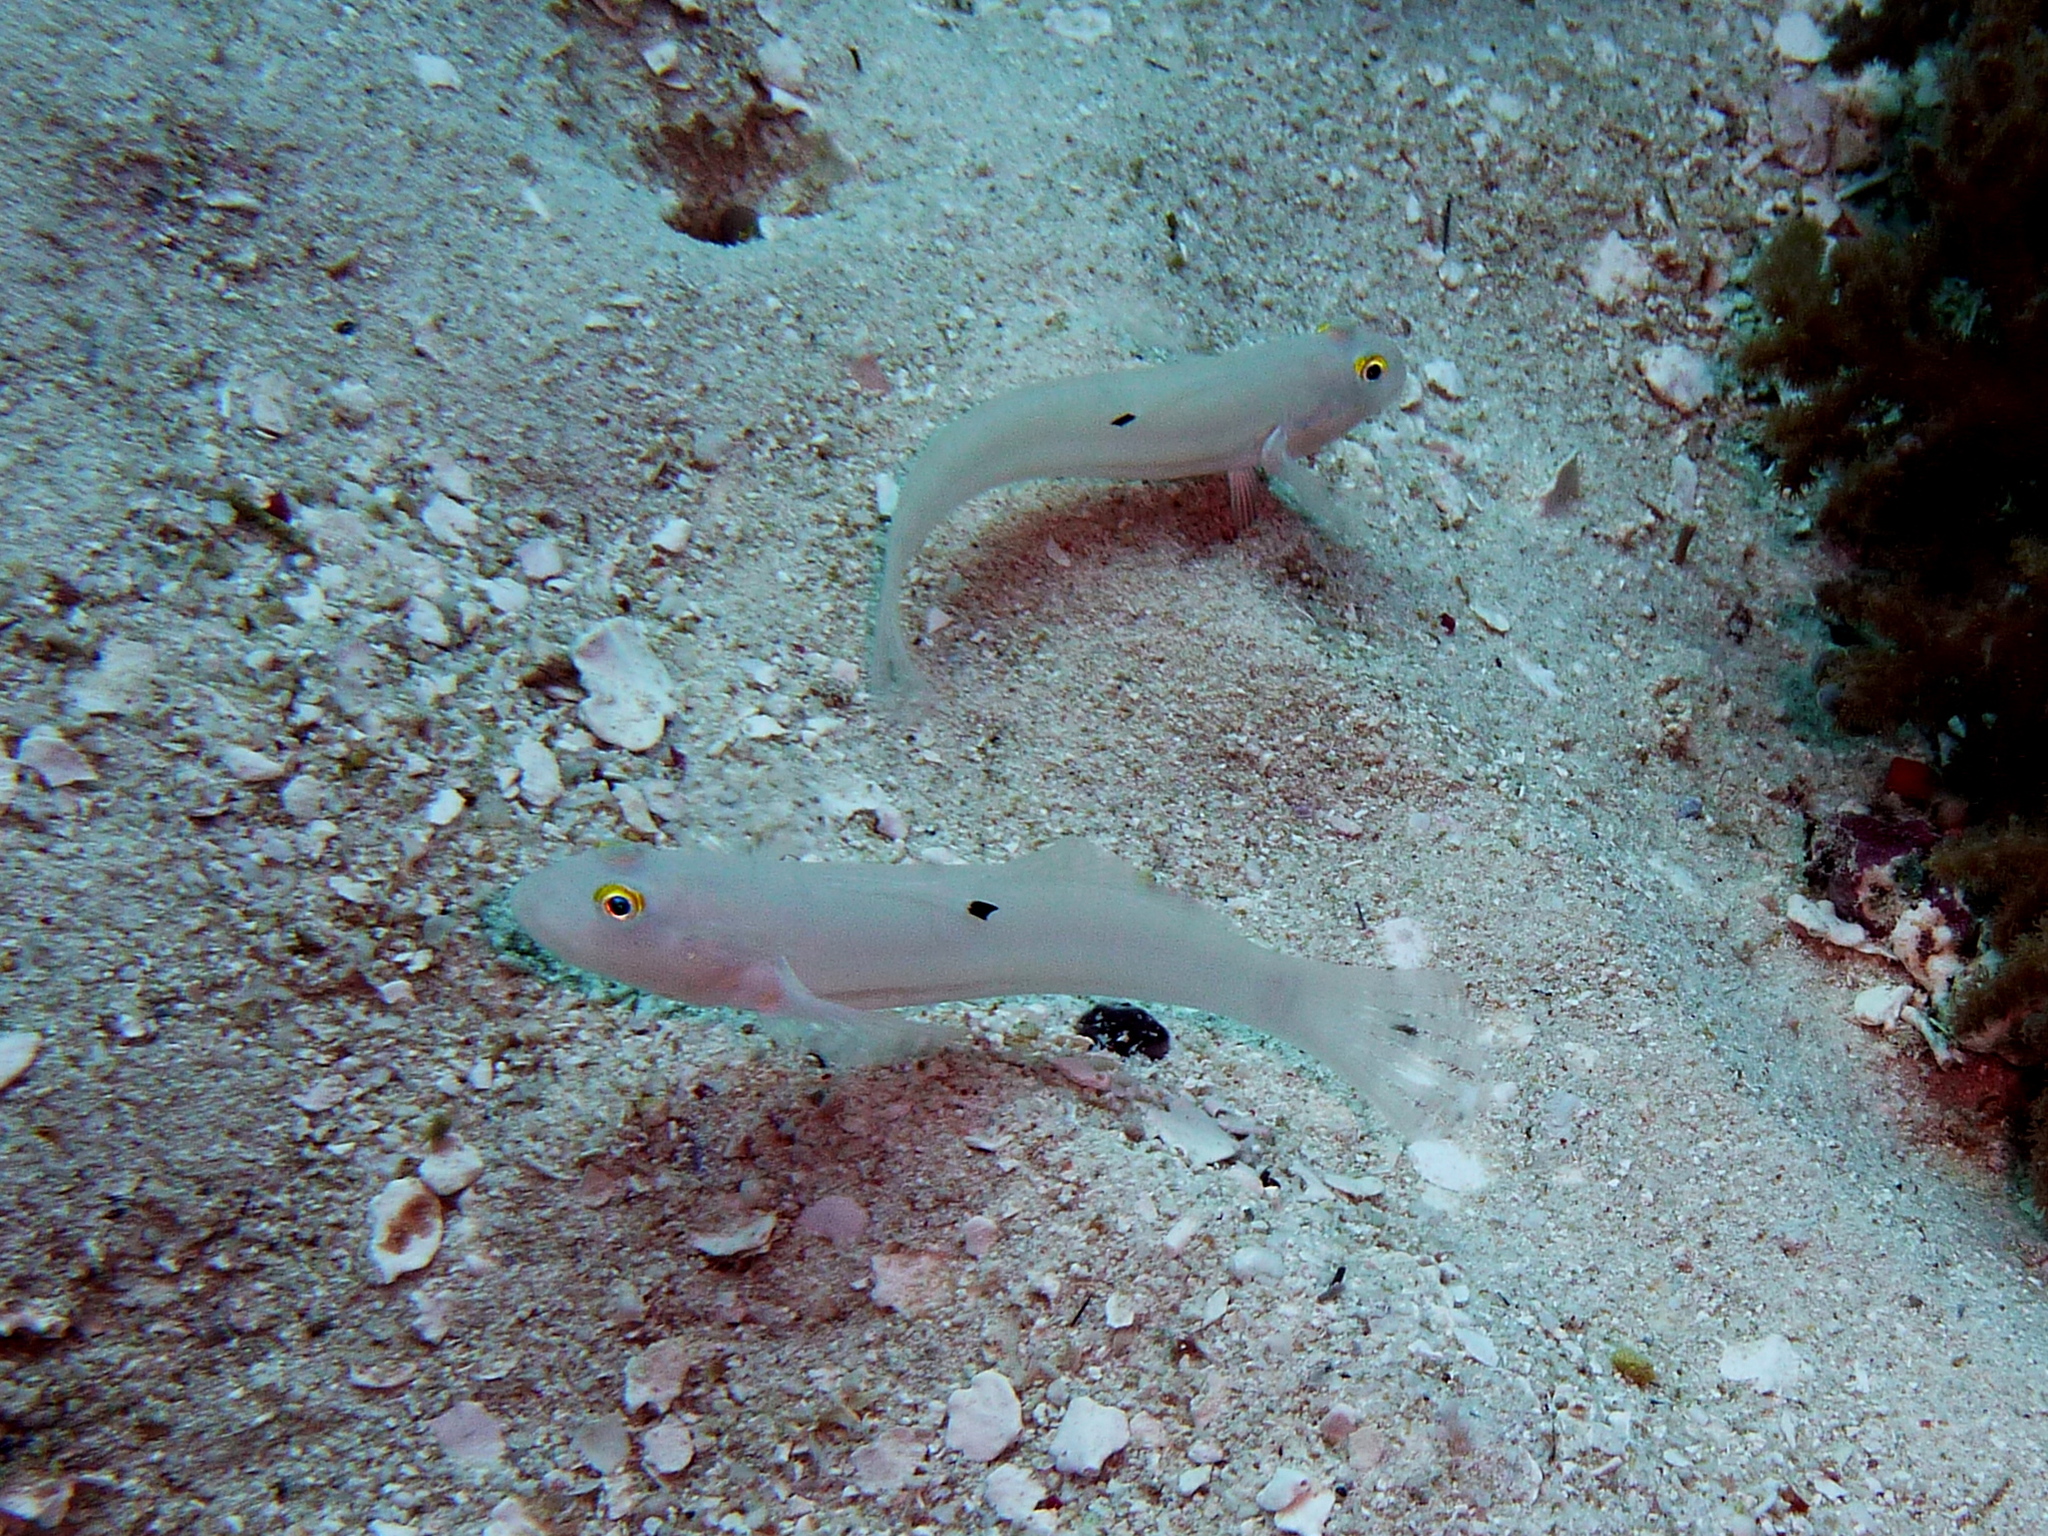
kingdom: Animalia
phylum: Chordata
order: Perciformes
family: Gobiidae
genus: Valenciennea
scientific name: Valenciennea sexguttata
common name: Sixspot goby
